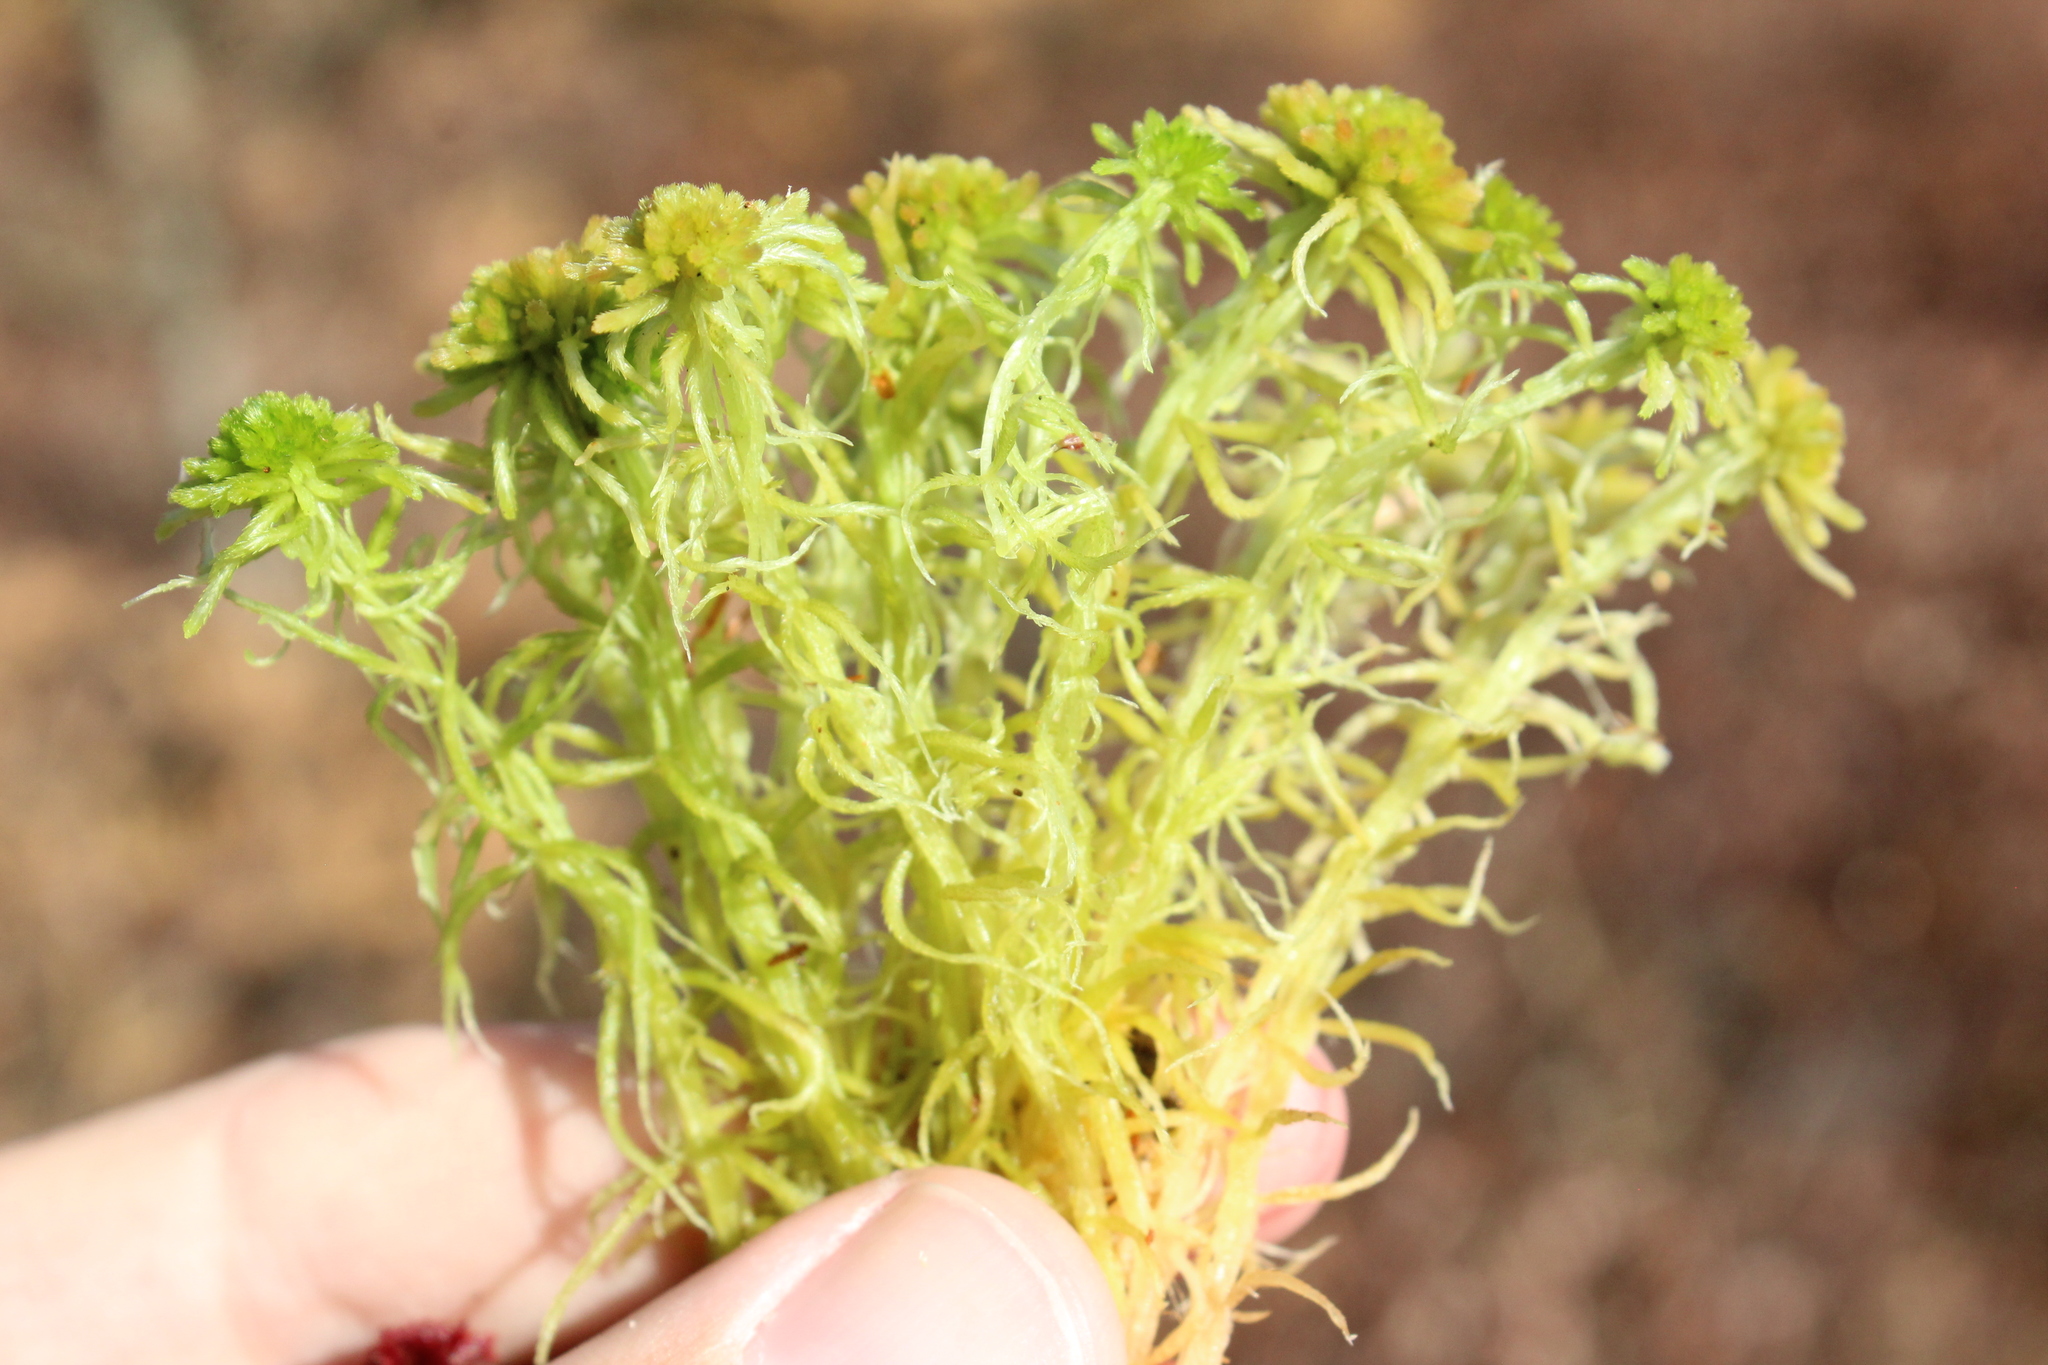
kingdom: Plantae
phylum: Bryophyta
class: Sphagnopsida
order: Sphagnales
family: Sphagnaceae
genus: Sphagnum
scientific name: Sphagnum angustifolium
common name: Narrow-leaved peat moss
